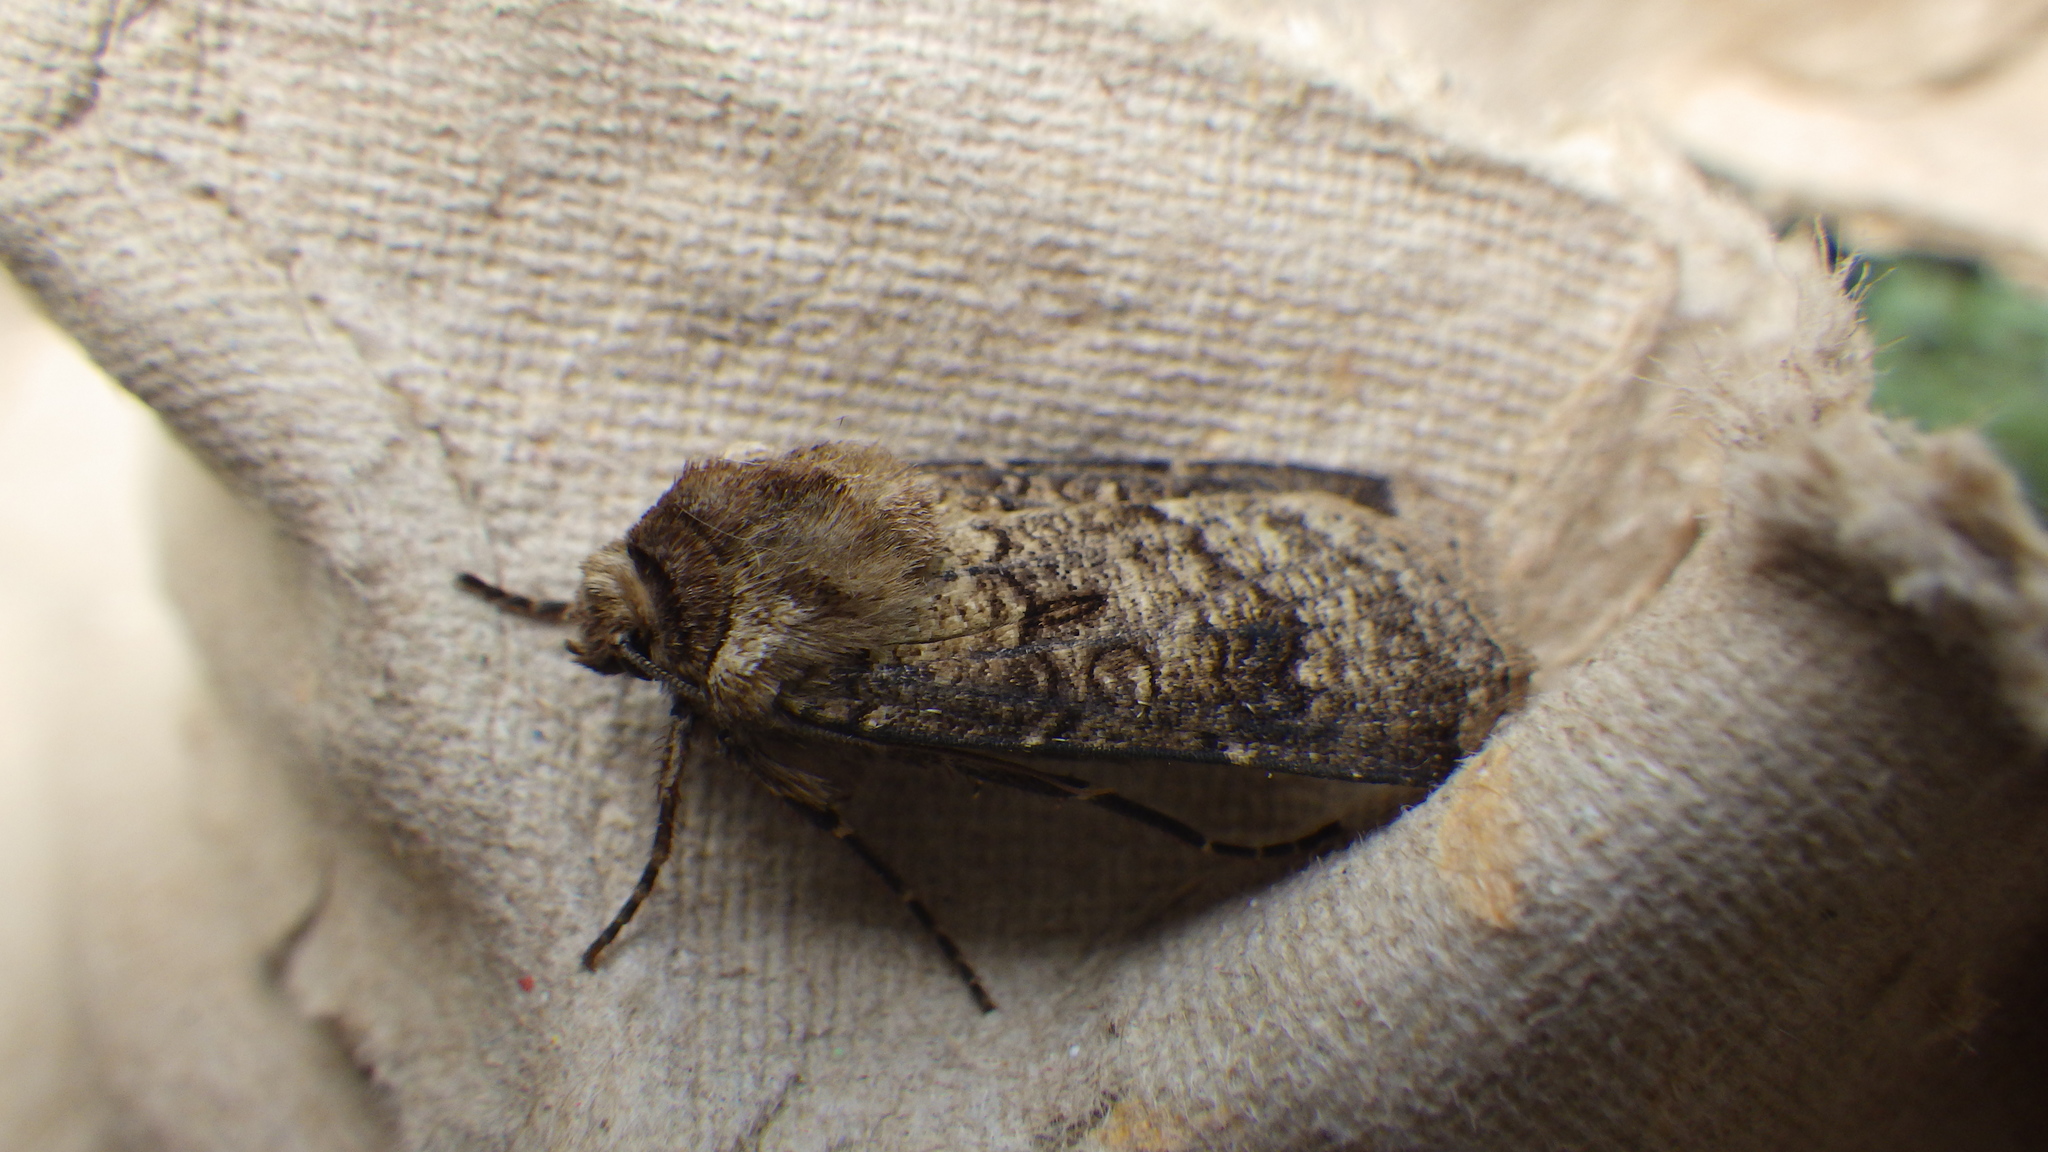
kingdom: Animalia
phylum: Arthropoda
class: Insecta
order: Lepidoptera
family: Noctuidae
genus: Agrotis
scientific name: Agrotis clavis
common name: Heart and club
